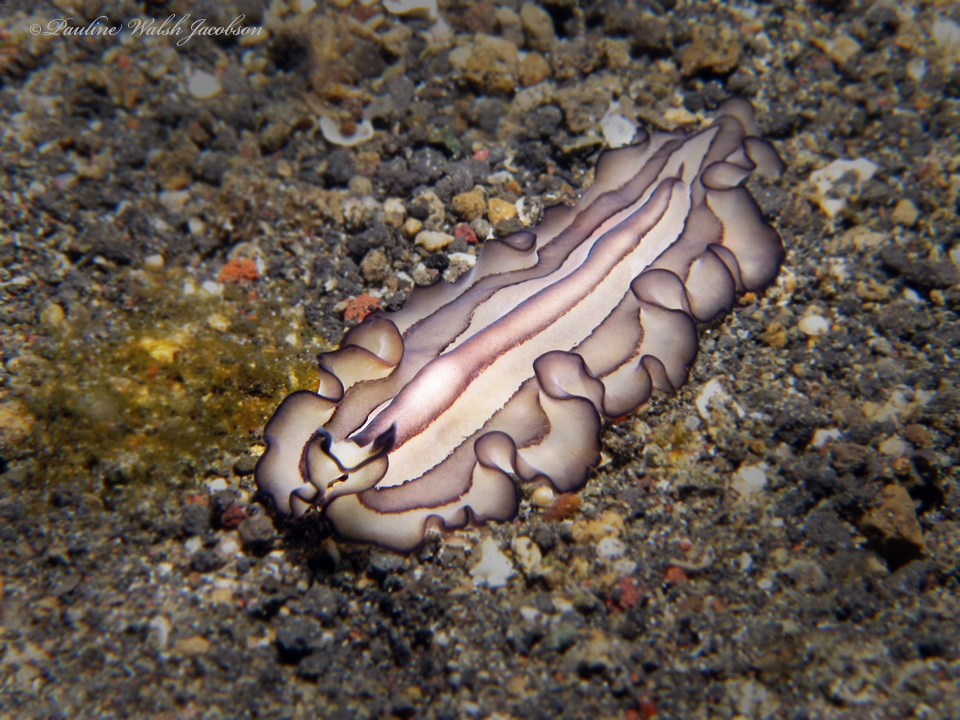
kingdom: Animalia
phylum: Platyhelminthes
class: Turbellaria
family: Pseudocerotidae
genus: Pseudobiceros
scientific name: Pseudobiceros gratus
